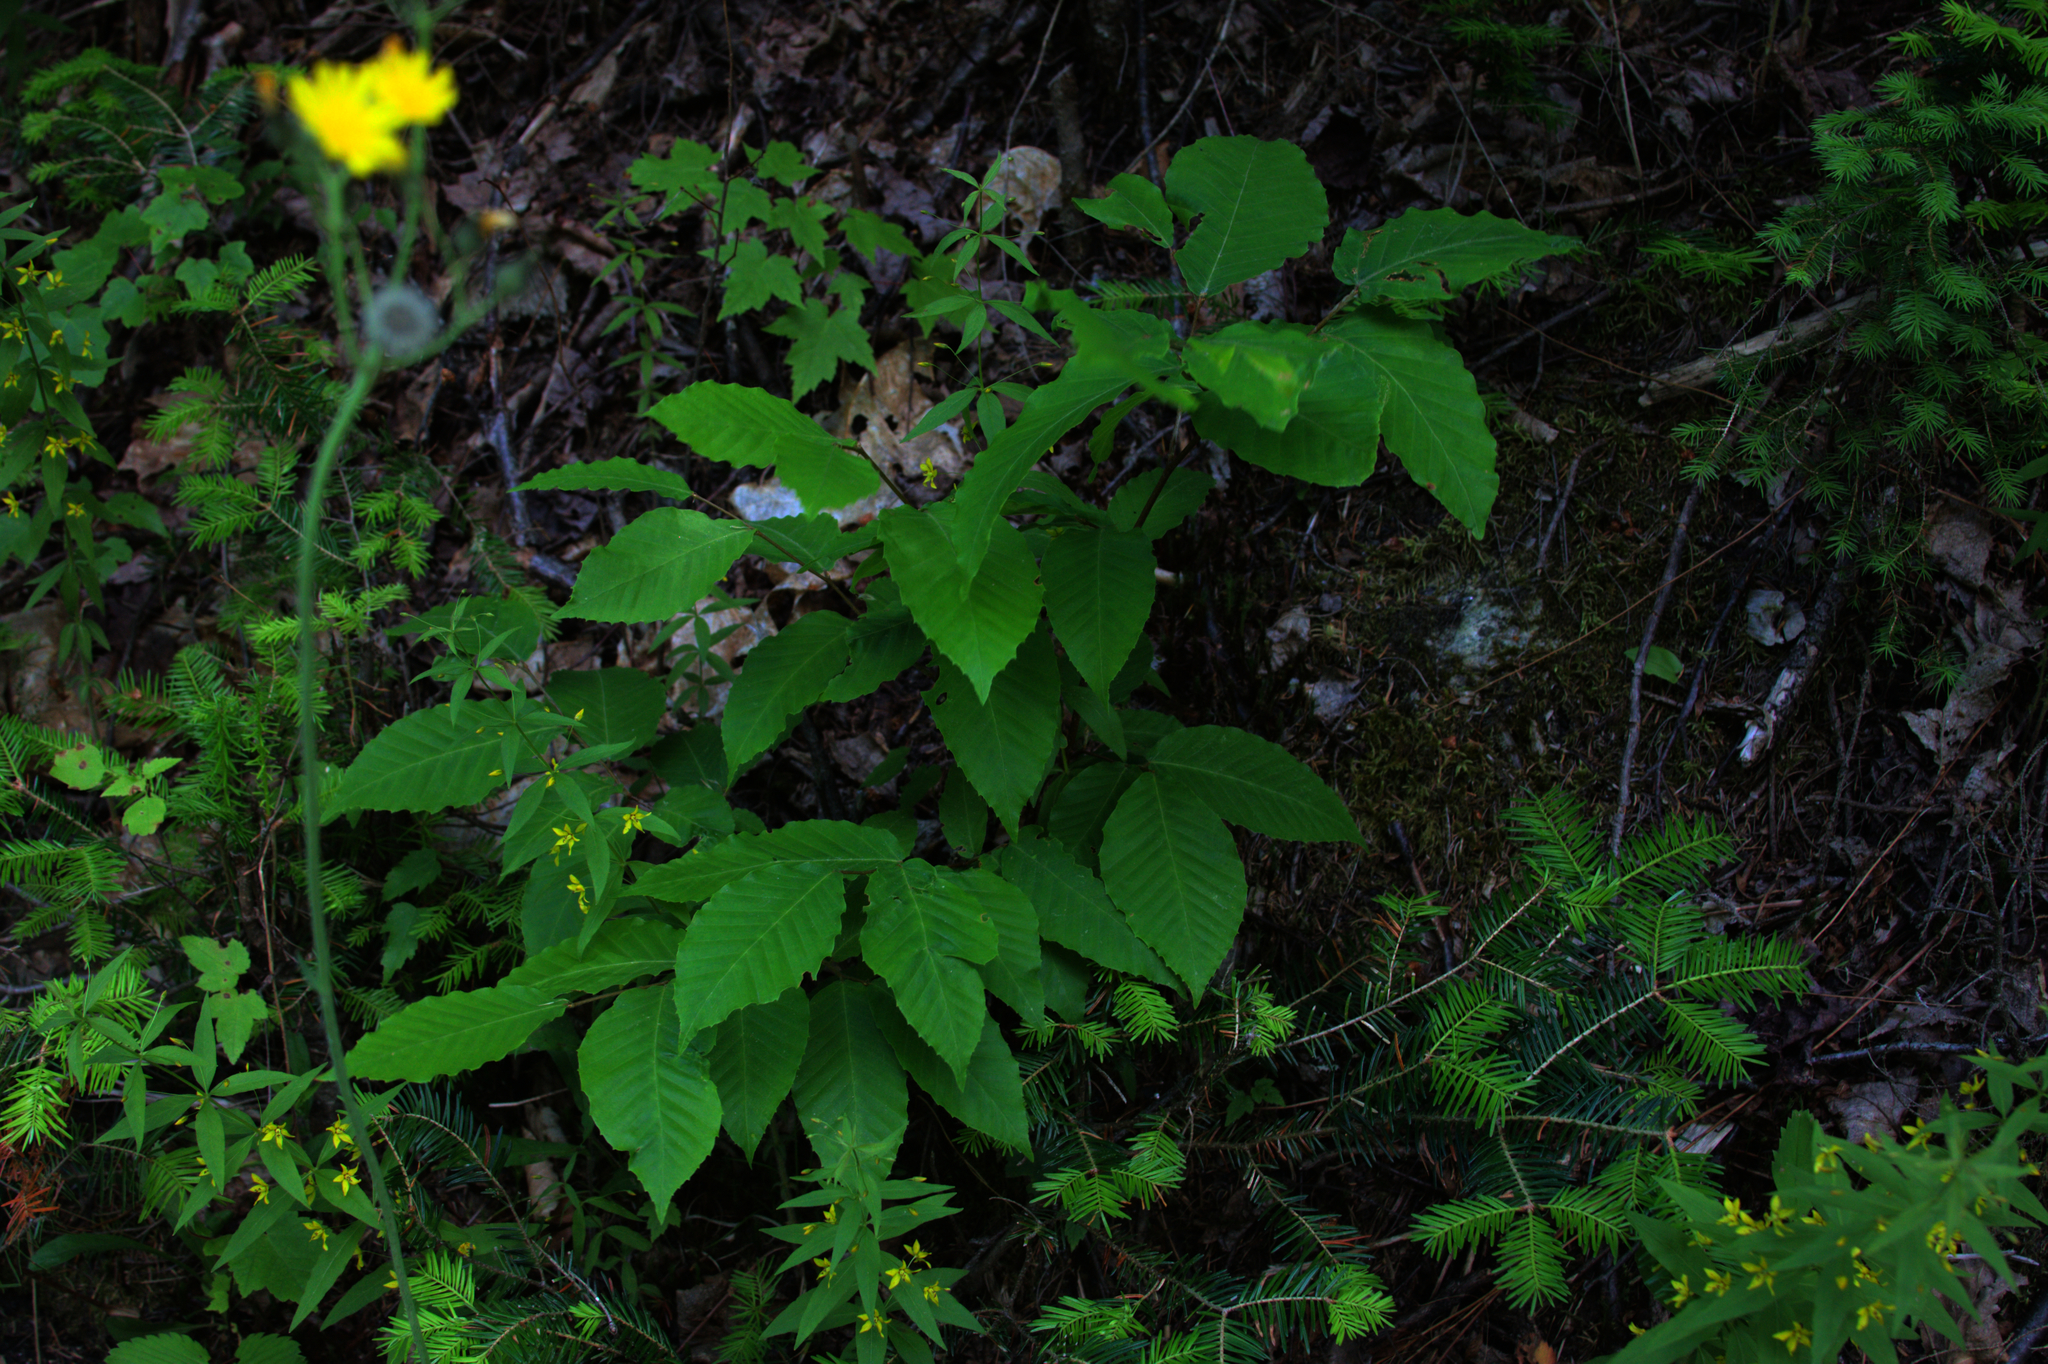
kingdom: Plantae
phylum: Tracheophyta
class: Magnoliopsida
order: Fagales
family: Fagaceae
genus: Fagus
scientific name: Fagus grandifolia
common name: American beech
